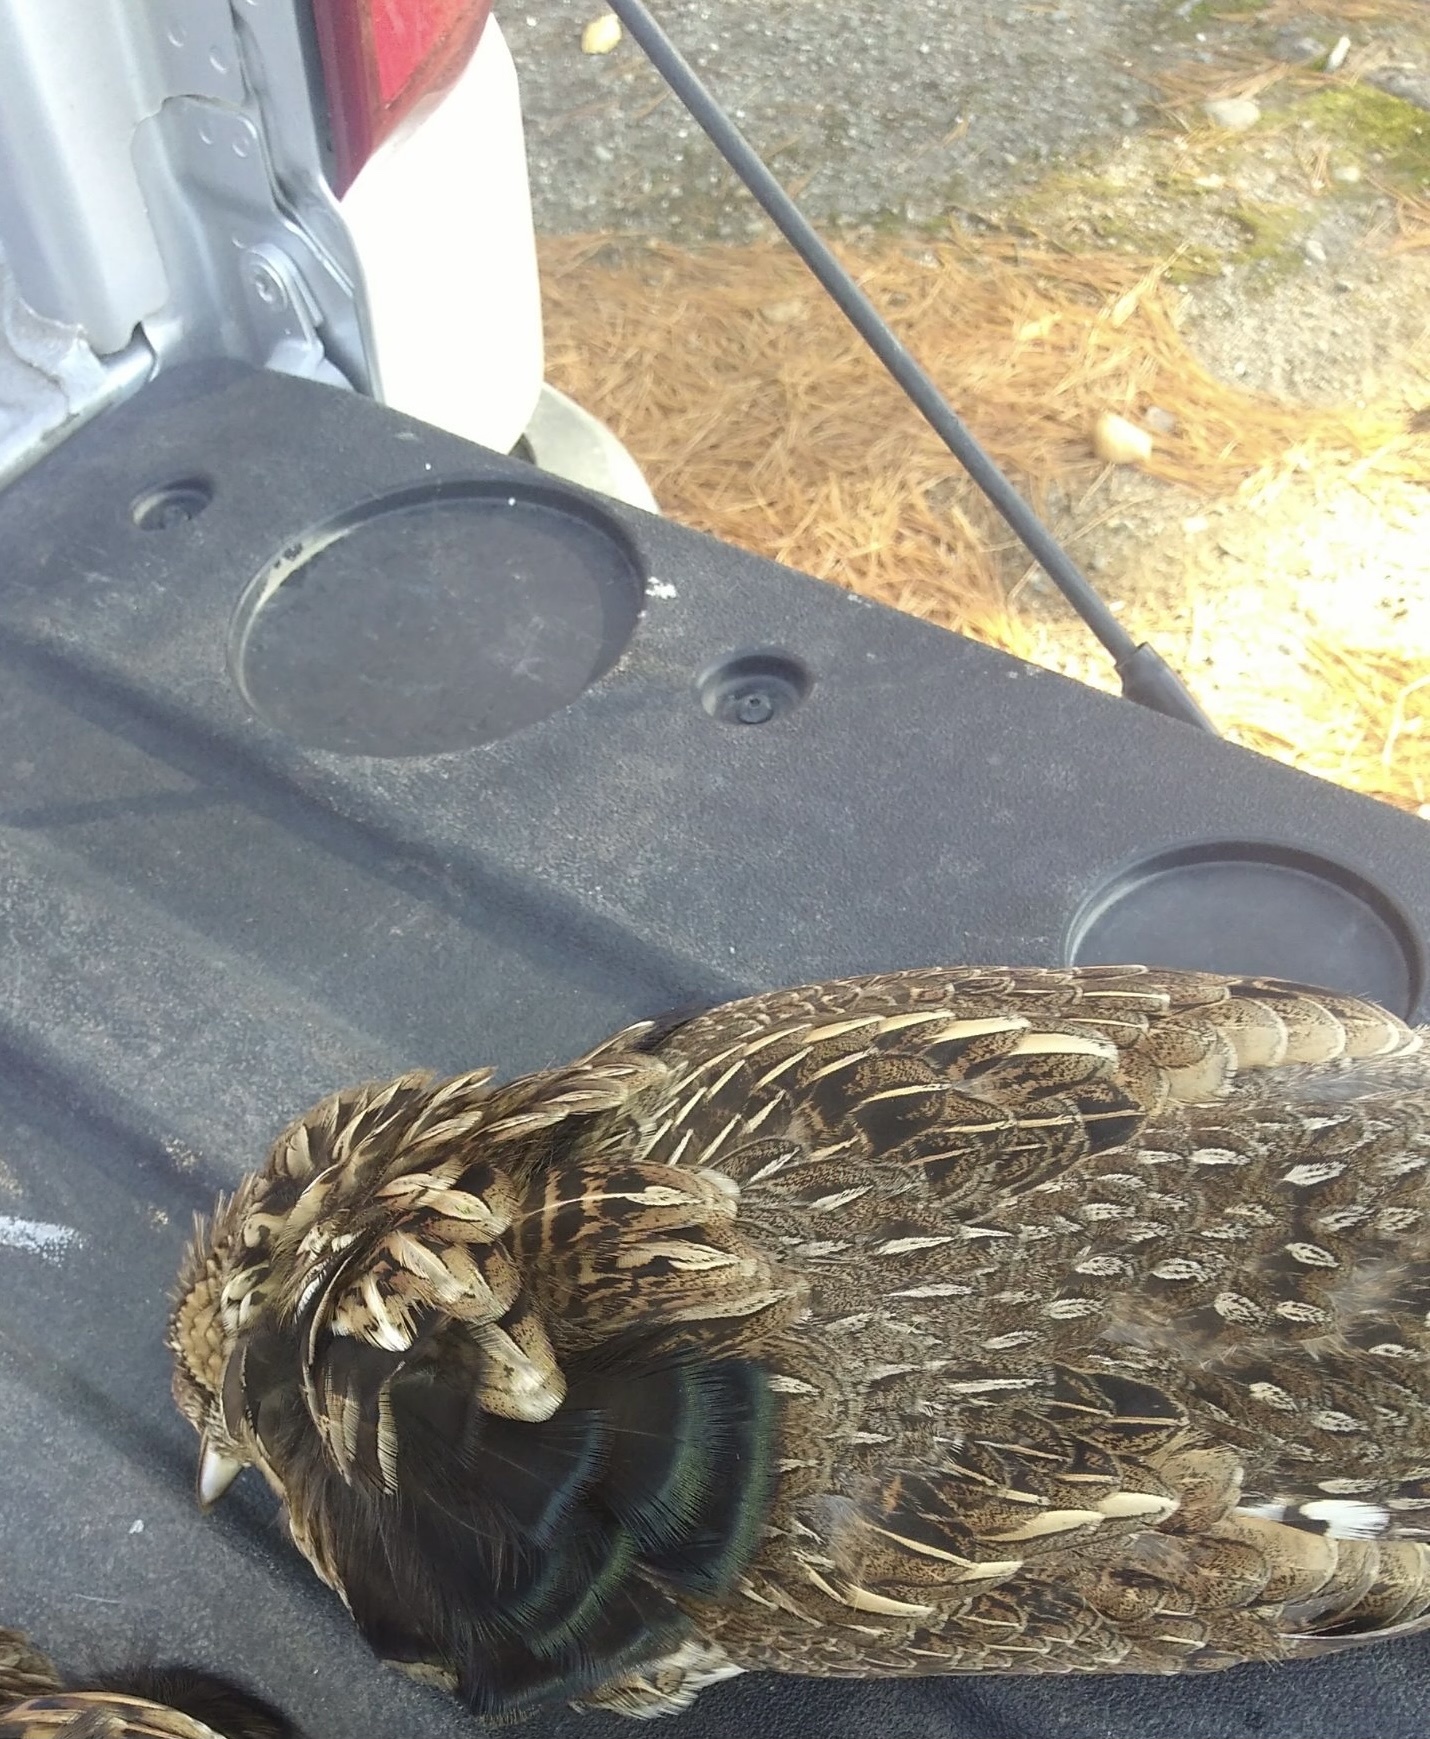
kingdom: Animalia
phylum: Chordata
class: Aves
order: Galliformes
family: Phasianidae
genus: Bonasa
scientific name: Bonasa umbellus
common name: Ruffed grouse
